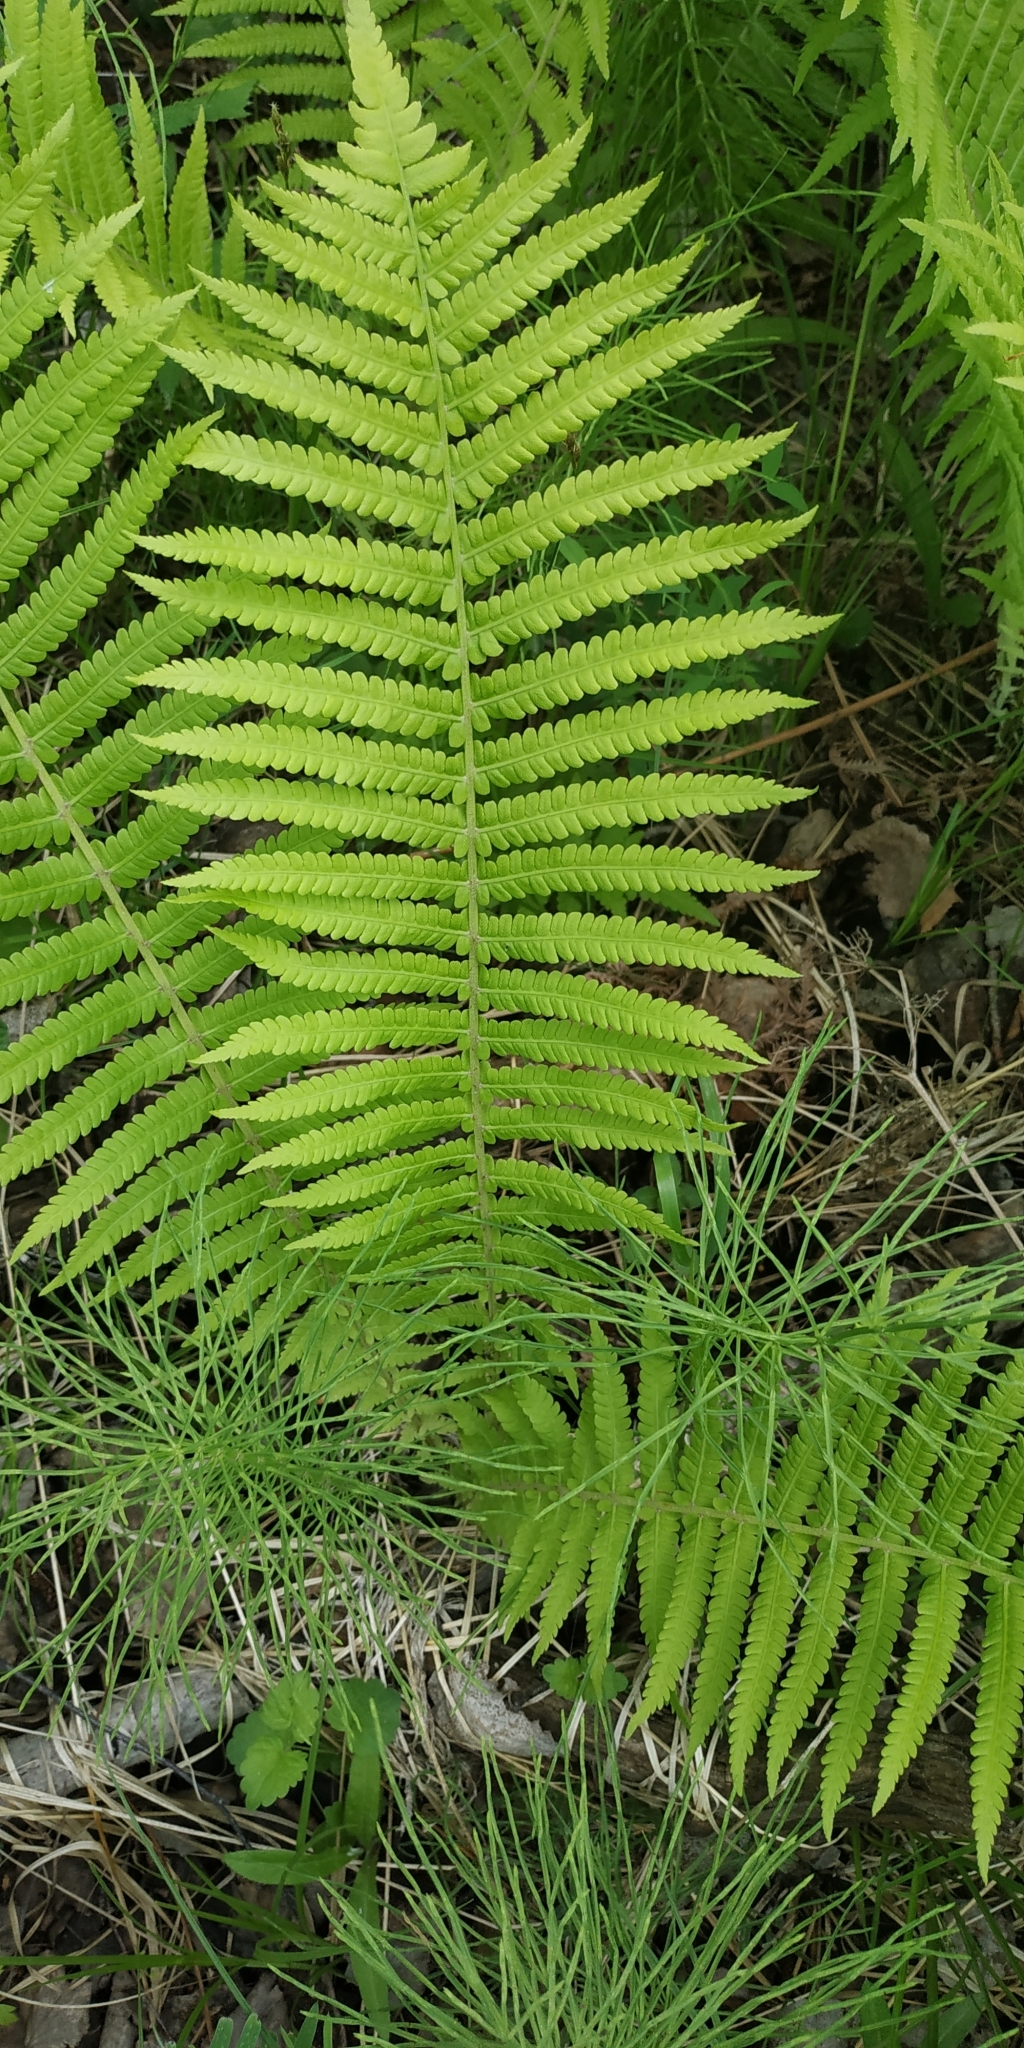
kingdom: Plantae
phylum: Tracheophyta
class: Polypodiopsida
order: Polypodiales
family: Onocleaceae
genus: Matteuccia
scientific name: Matteuccia struthiopteris
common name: Ostrich fern
